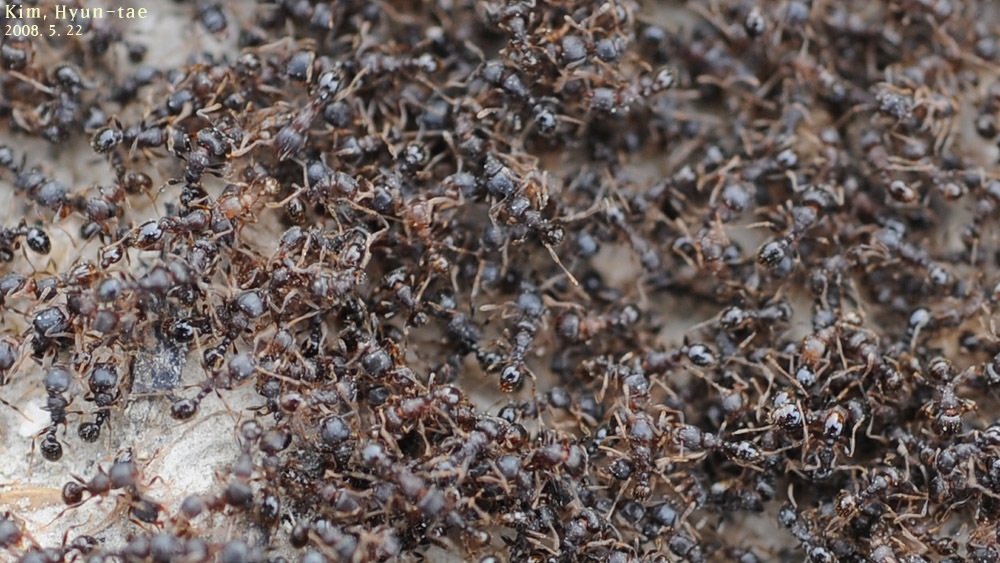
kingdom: Animalia
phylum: Arthropoda
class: Insecta
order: Hymenoptera
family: Formicidae
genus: Tetramorium
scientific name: Tetramorium tsushimae
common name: Ant
